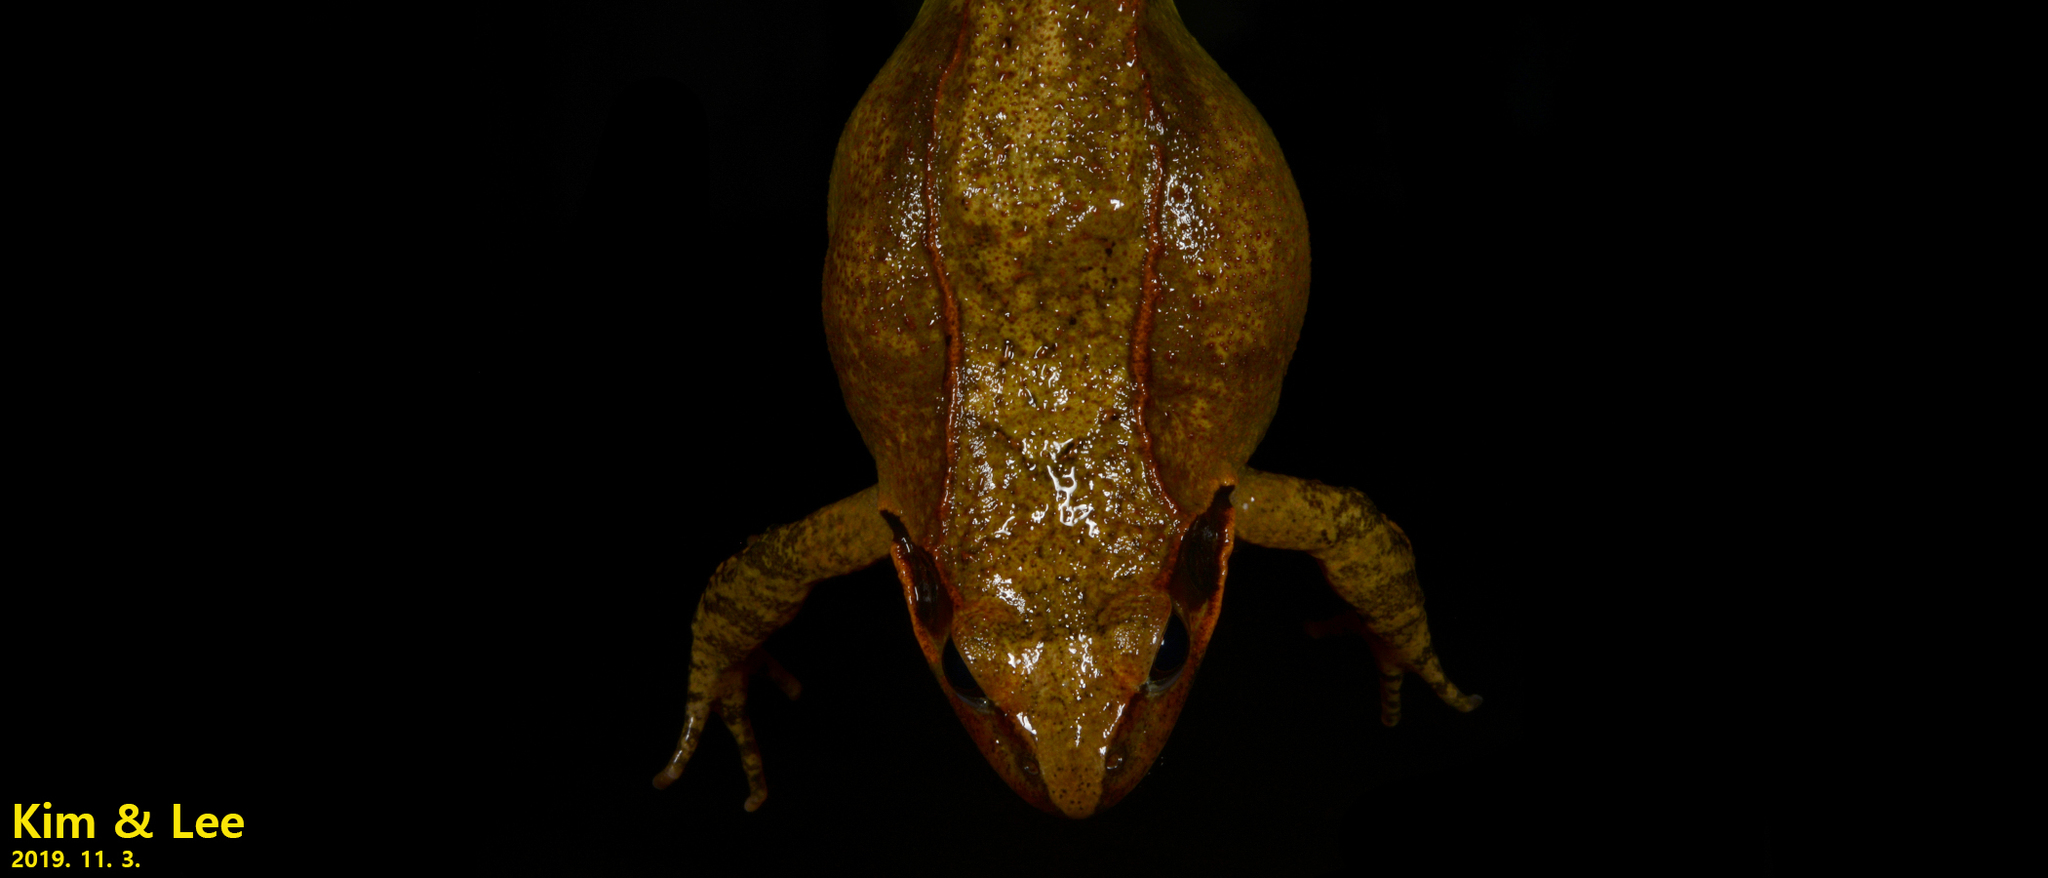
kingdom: Animalia
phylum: Chordata
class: Amphibia
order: Anura
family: Ranidae
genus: Rana
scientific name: Rana uenoi
